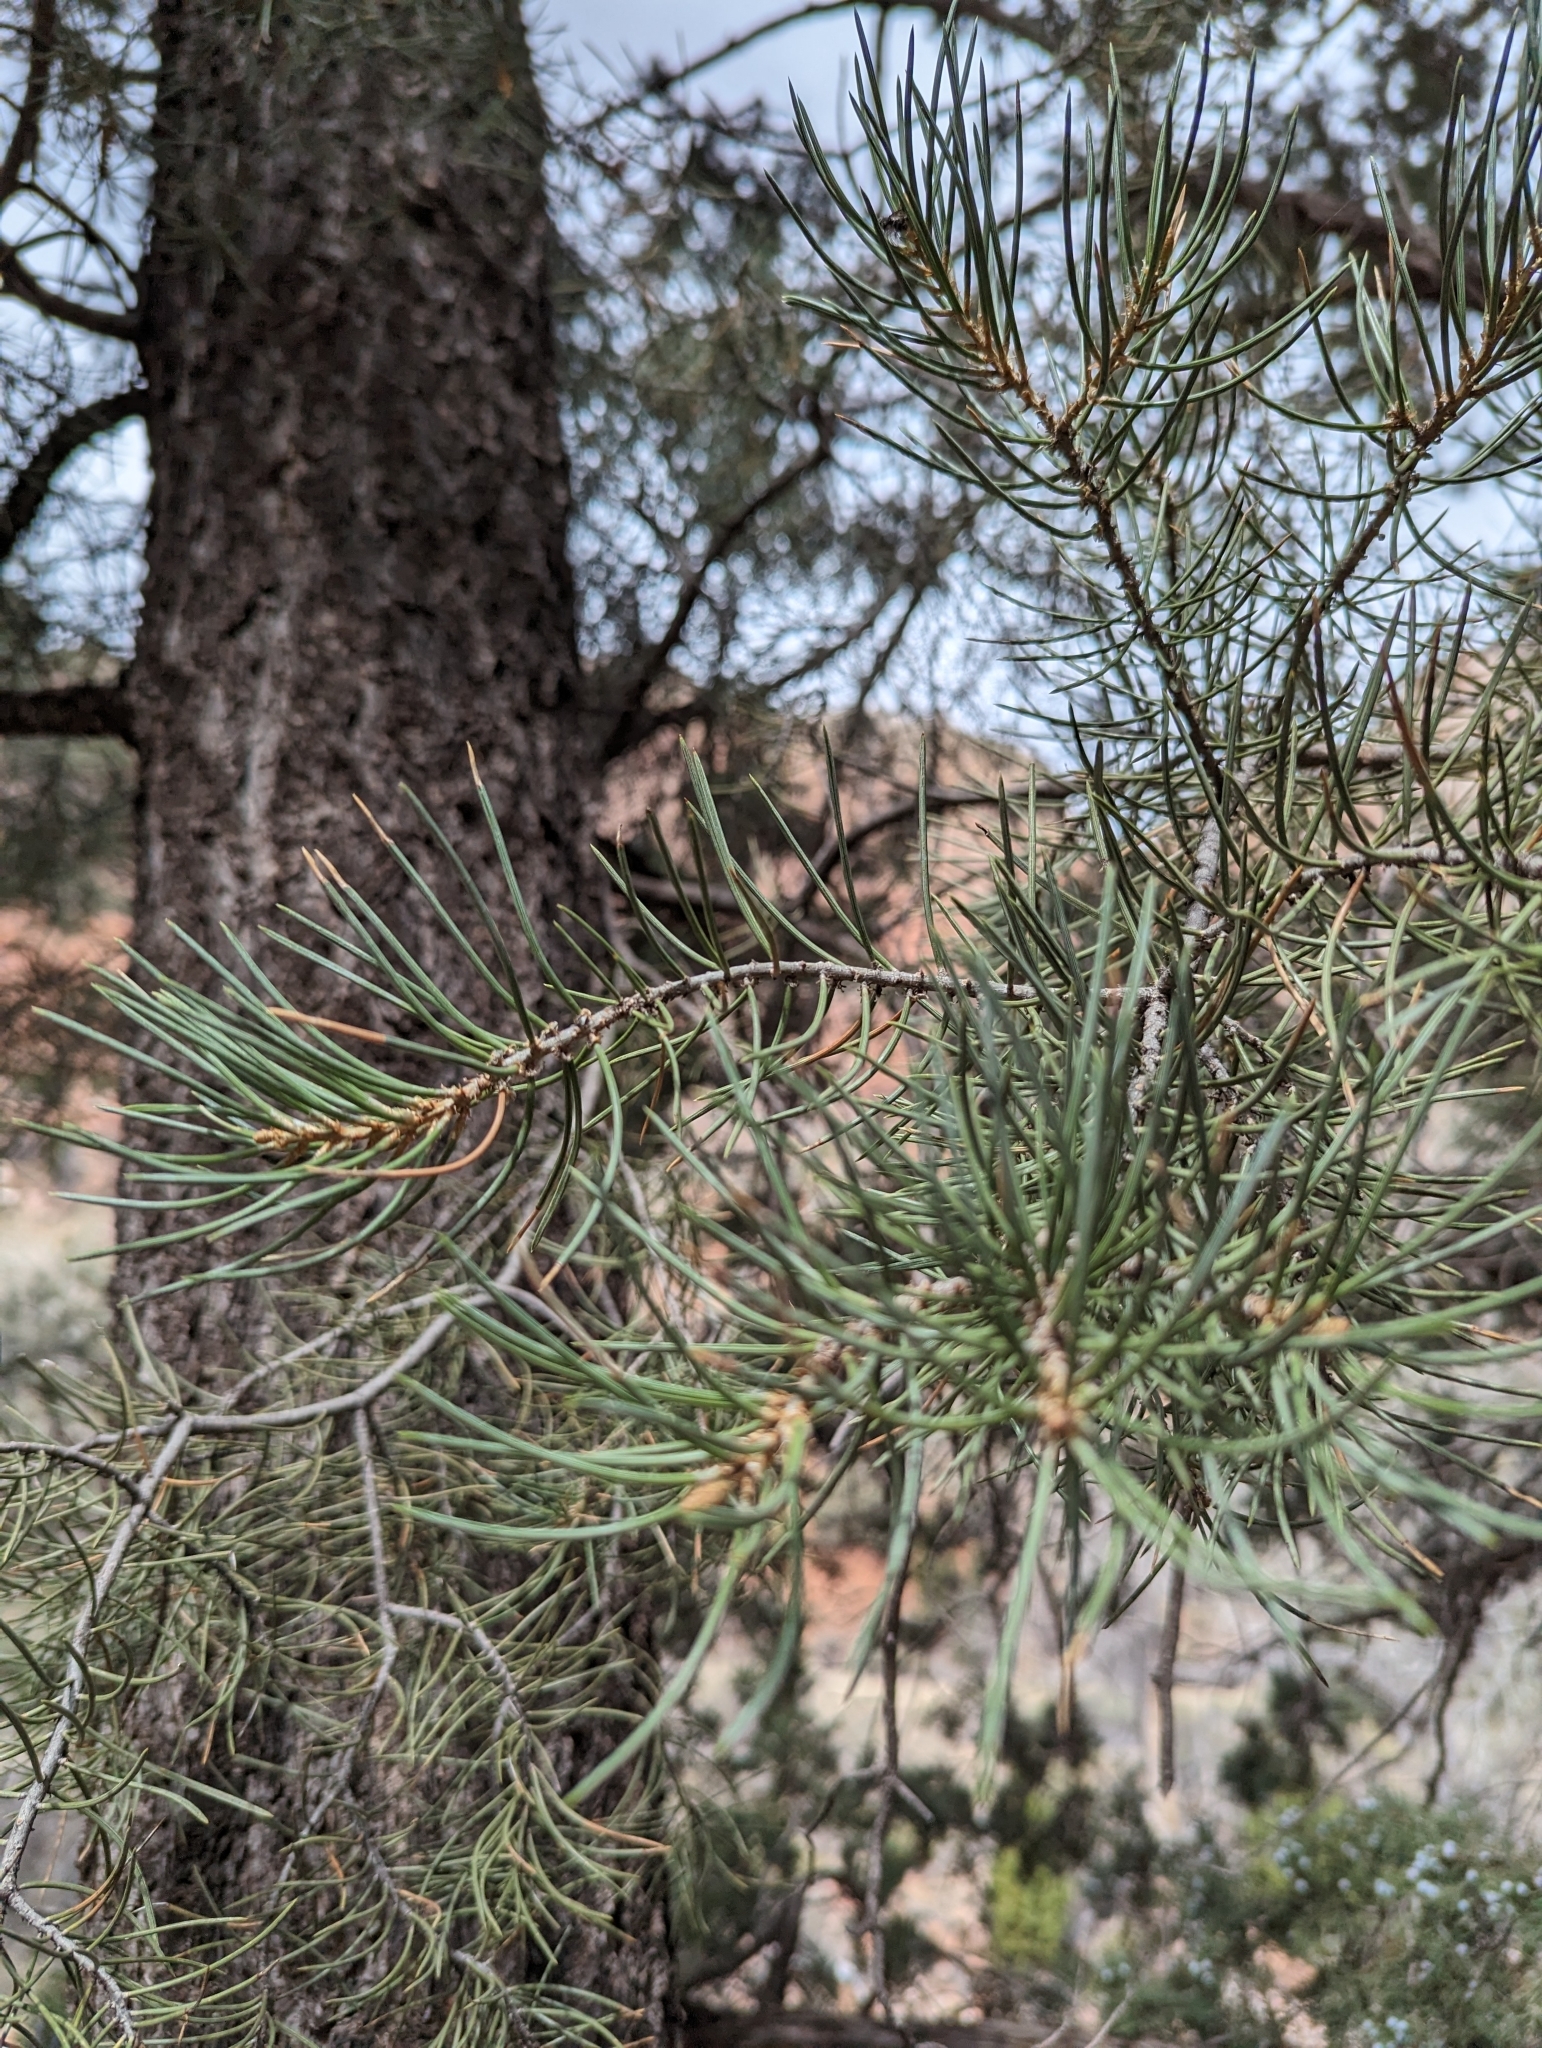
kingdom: Plantae
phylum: Tracheophyta
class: Pinopsida
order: Pinales
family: Pinaceae
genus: Pinus
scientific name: Pinus monophylla
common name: One-leaved nut pine
